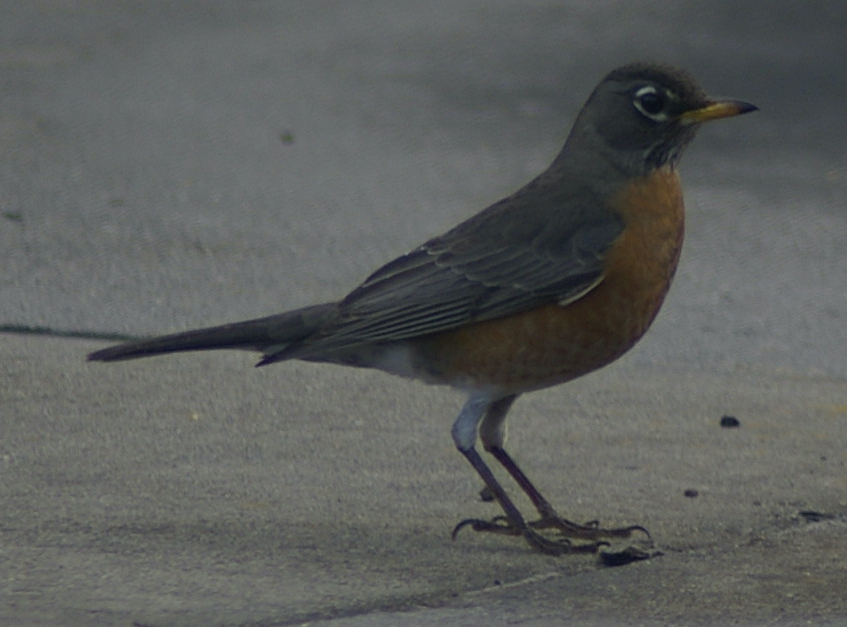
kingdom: Animalia
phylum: Chordata
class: Aves
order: Passeriformes
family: Turdidae
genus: Turdus
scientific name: Turdus migratorius
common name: American robin
